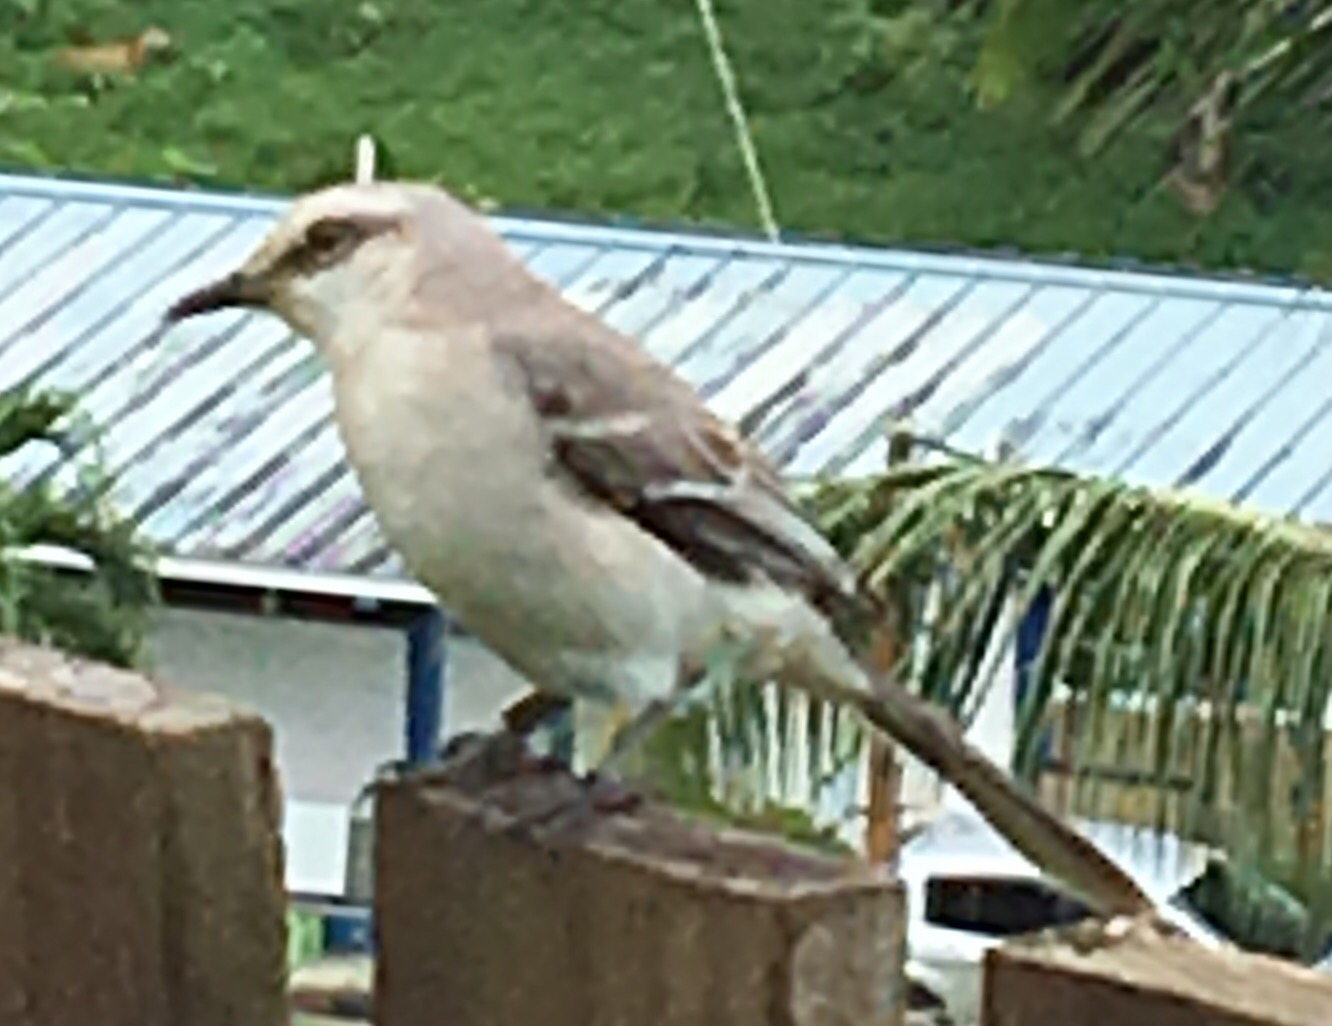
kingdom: Animalia
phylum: Chordata
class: Aves
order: Passeriformes
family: Mimidae
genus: Mimus
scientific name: Mimus gilvus
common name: Tropical mockingbird
